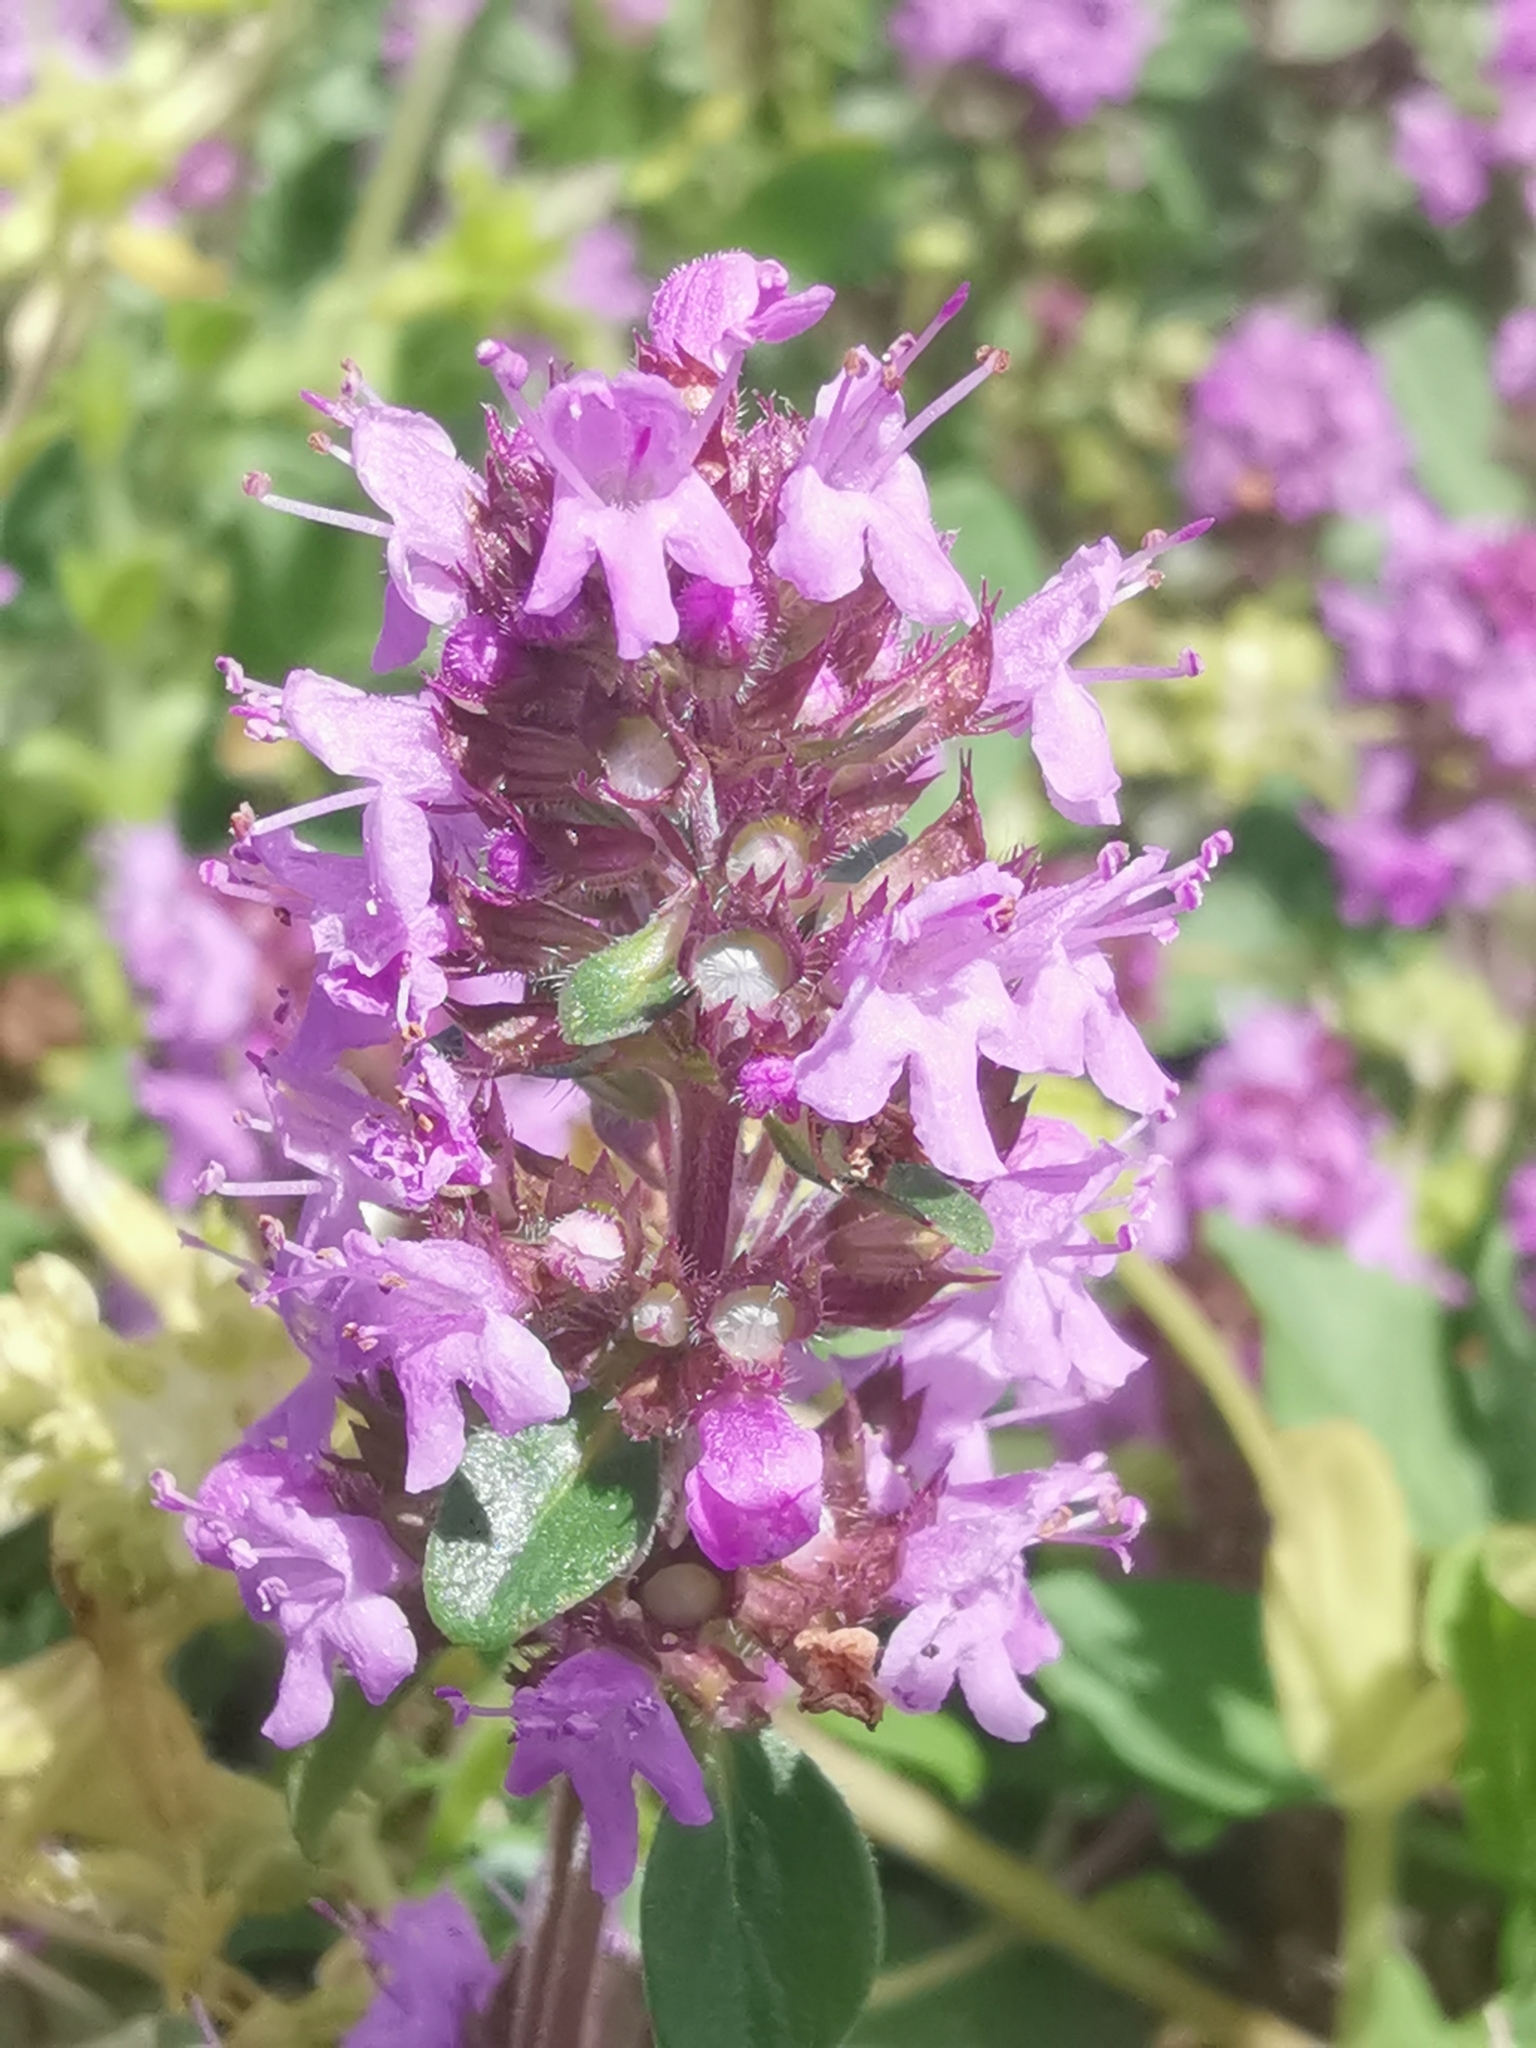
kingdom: Plantae
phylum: Tracheophyta
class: Magnoliopsida
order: Lamiales
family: Lamiaceae
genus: Thymus
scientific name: Thymus pulegioides
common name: Large thyme
